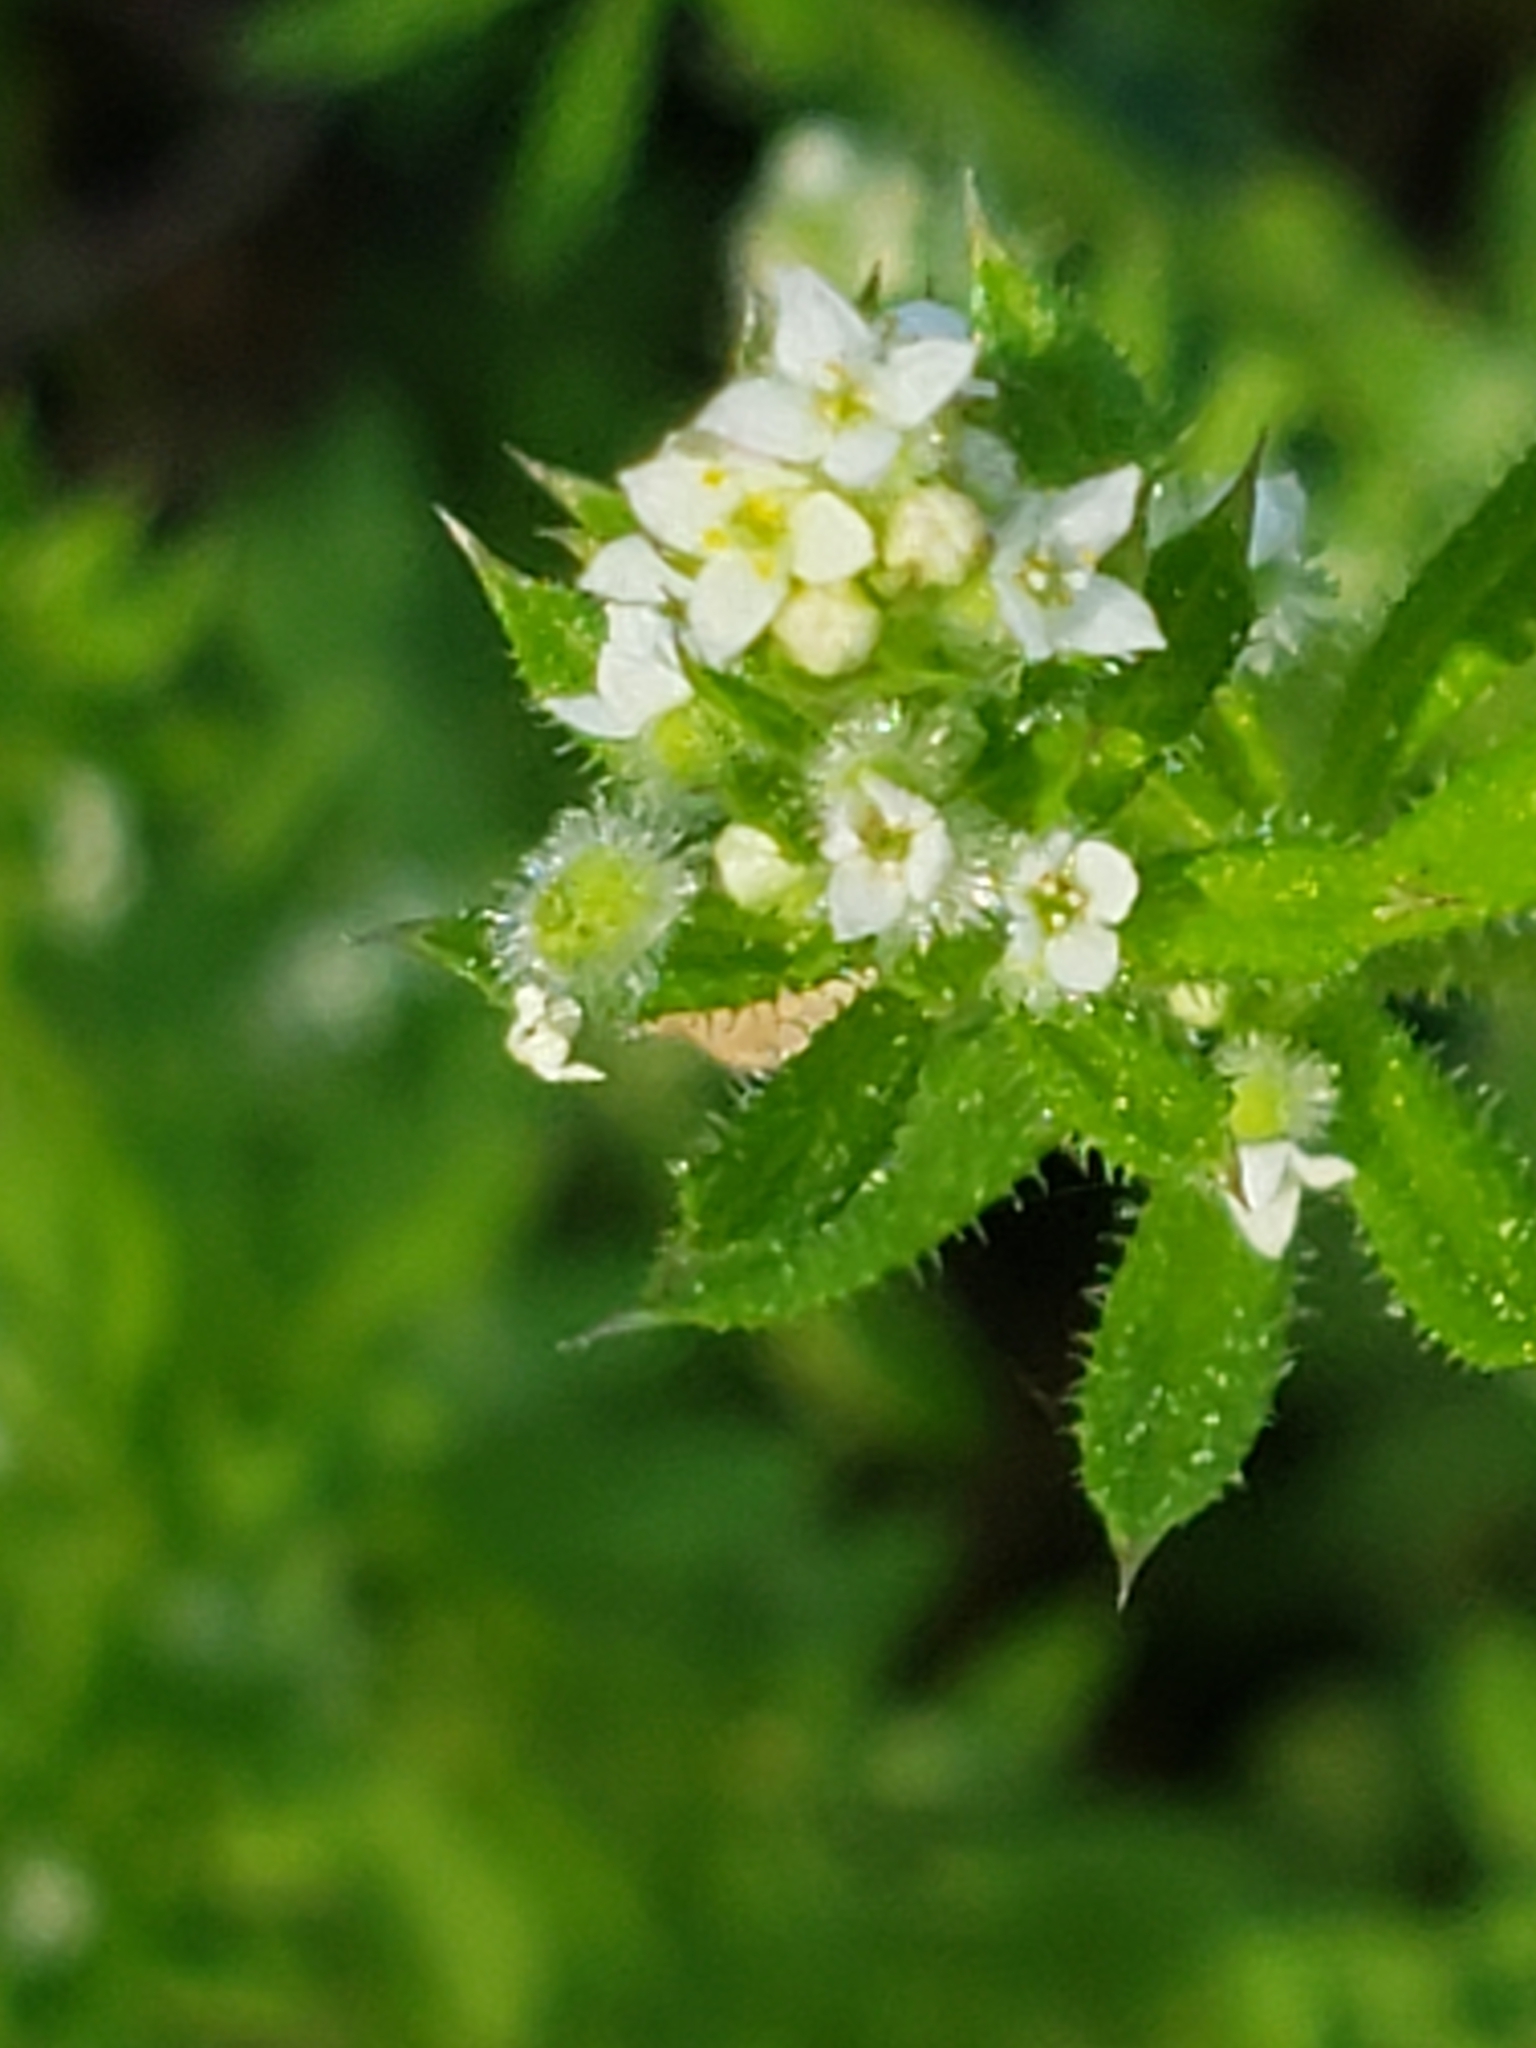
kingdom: Plantae
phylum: Tracheophyta
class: Magnoliopsida
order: Gentianales
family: Rubiaceae
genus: Galium
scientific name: Galium aparine
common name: Cleavers
